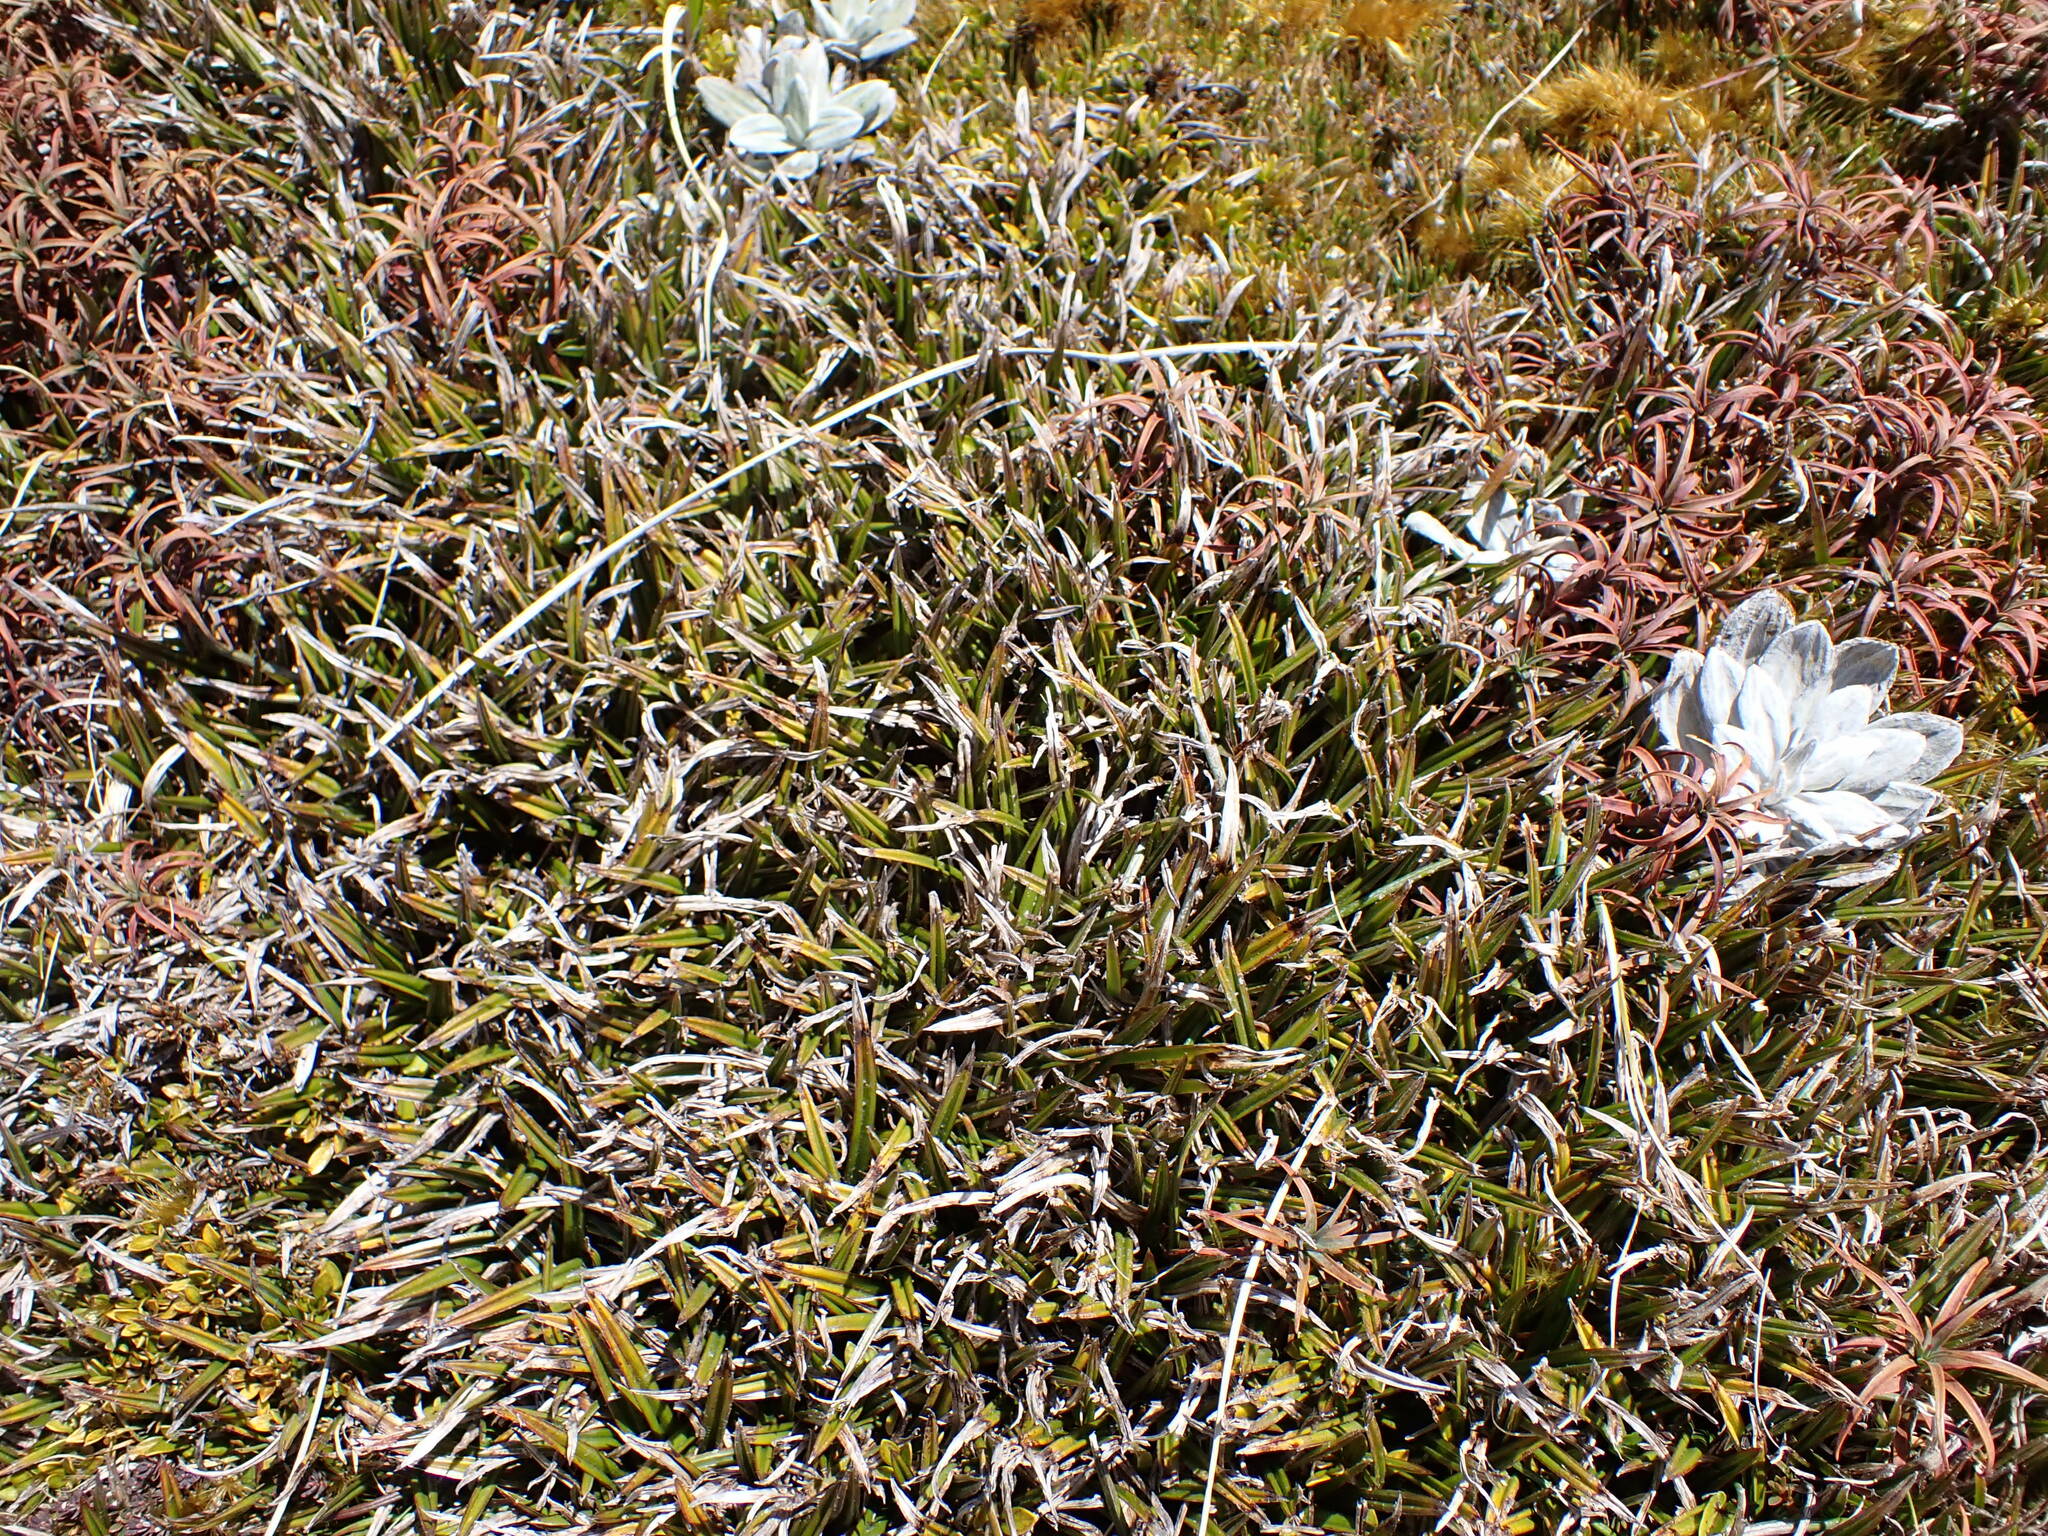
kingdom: Plantae
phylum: Tracheophyta
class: Liliopsida
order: Asparagales
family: Asteliaceae
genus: Astelia
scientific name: Astelia linearis
